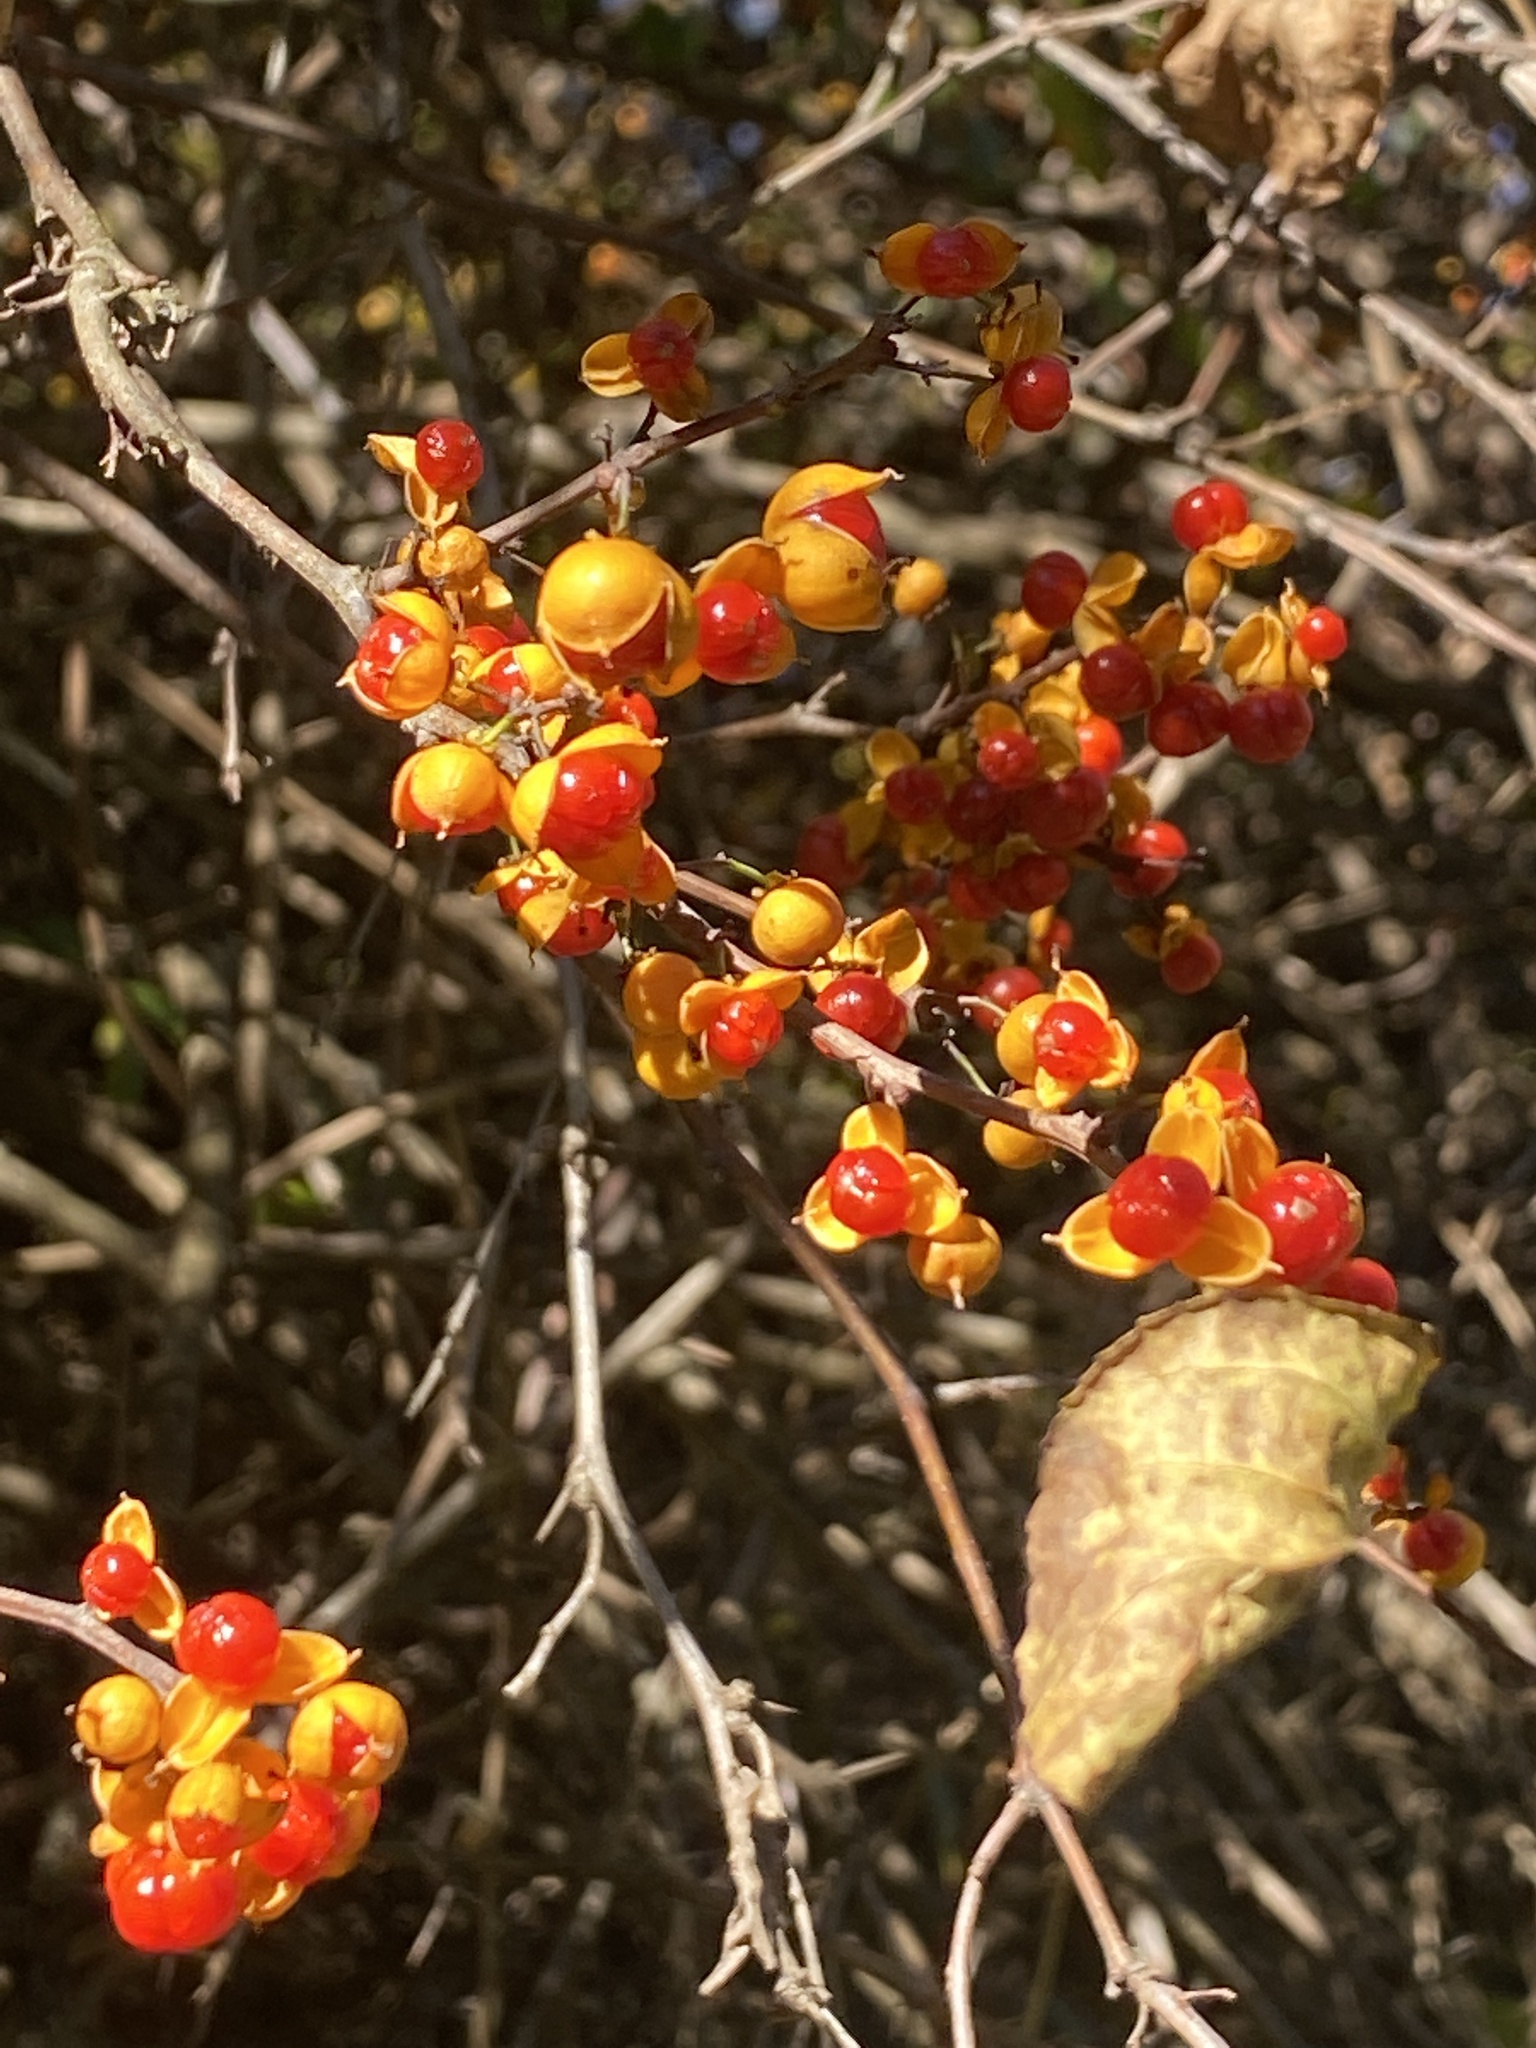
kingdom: Plantae
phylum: Tracheophyta
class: Magnoliopsida
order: Celastrales
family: Celastraceae
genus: Celastrus
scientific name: Celastrus orbiculatus
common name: Oriental bittersweet
